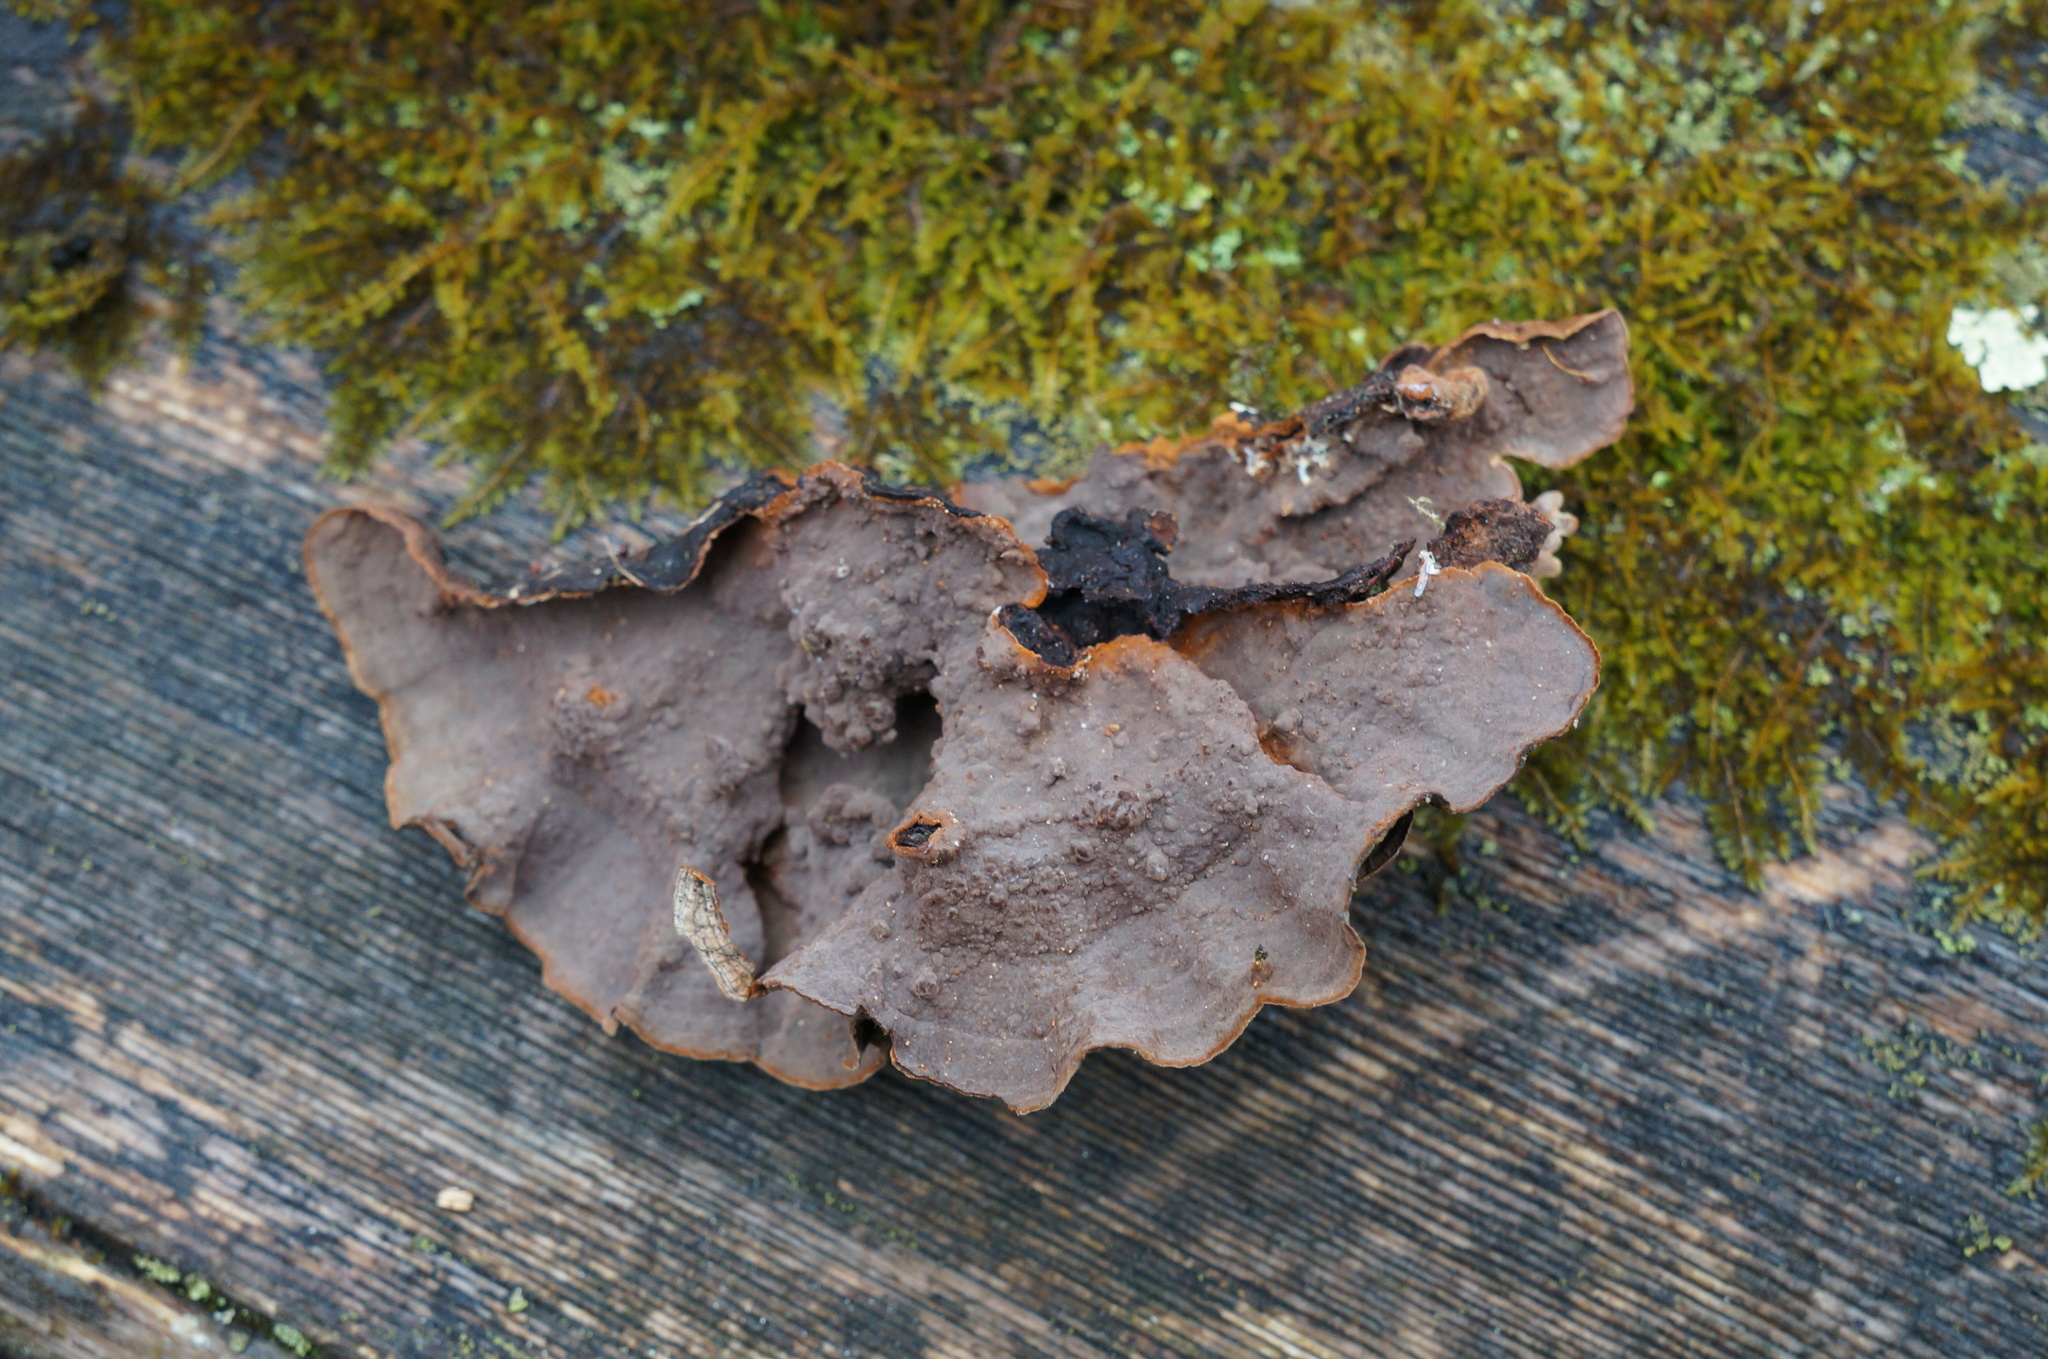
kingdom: Fungi
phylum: Basidiomycota
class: Agaricomycetes
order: Hymenochaetales
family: Hymenochaetaceae
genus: Hymenochaete
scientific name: Hymenochaete rubiginosa
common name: Oak curtain crust
